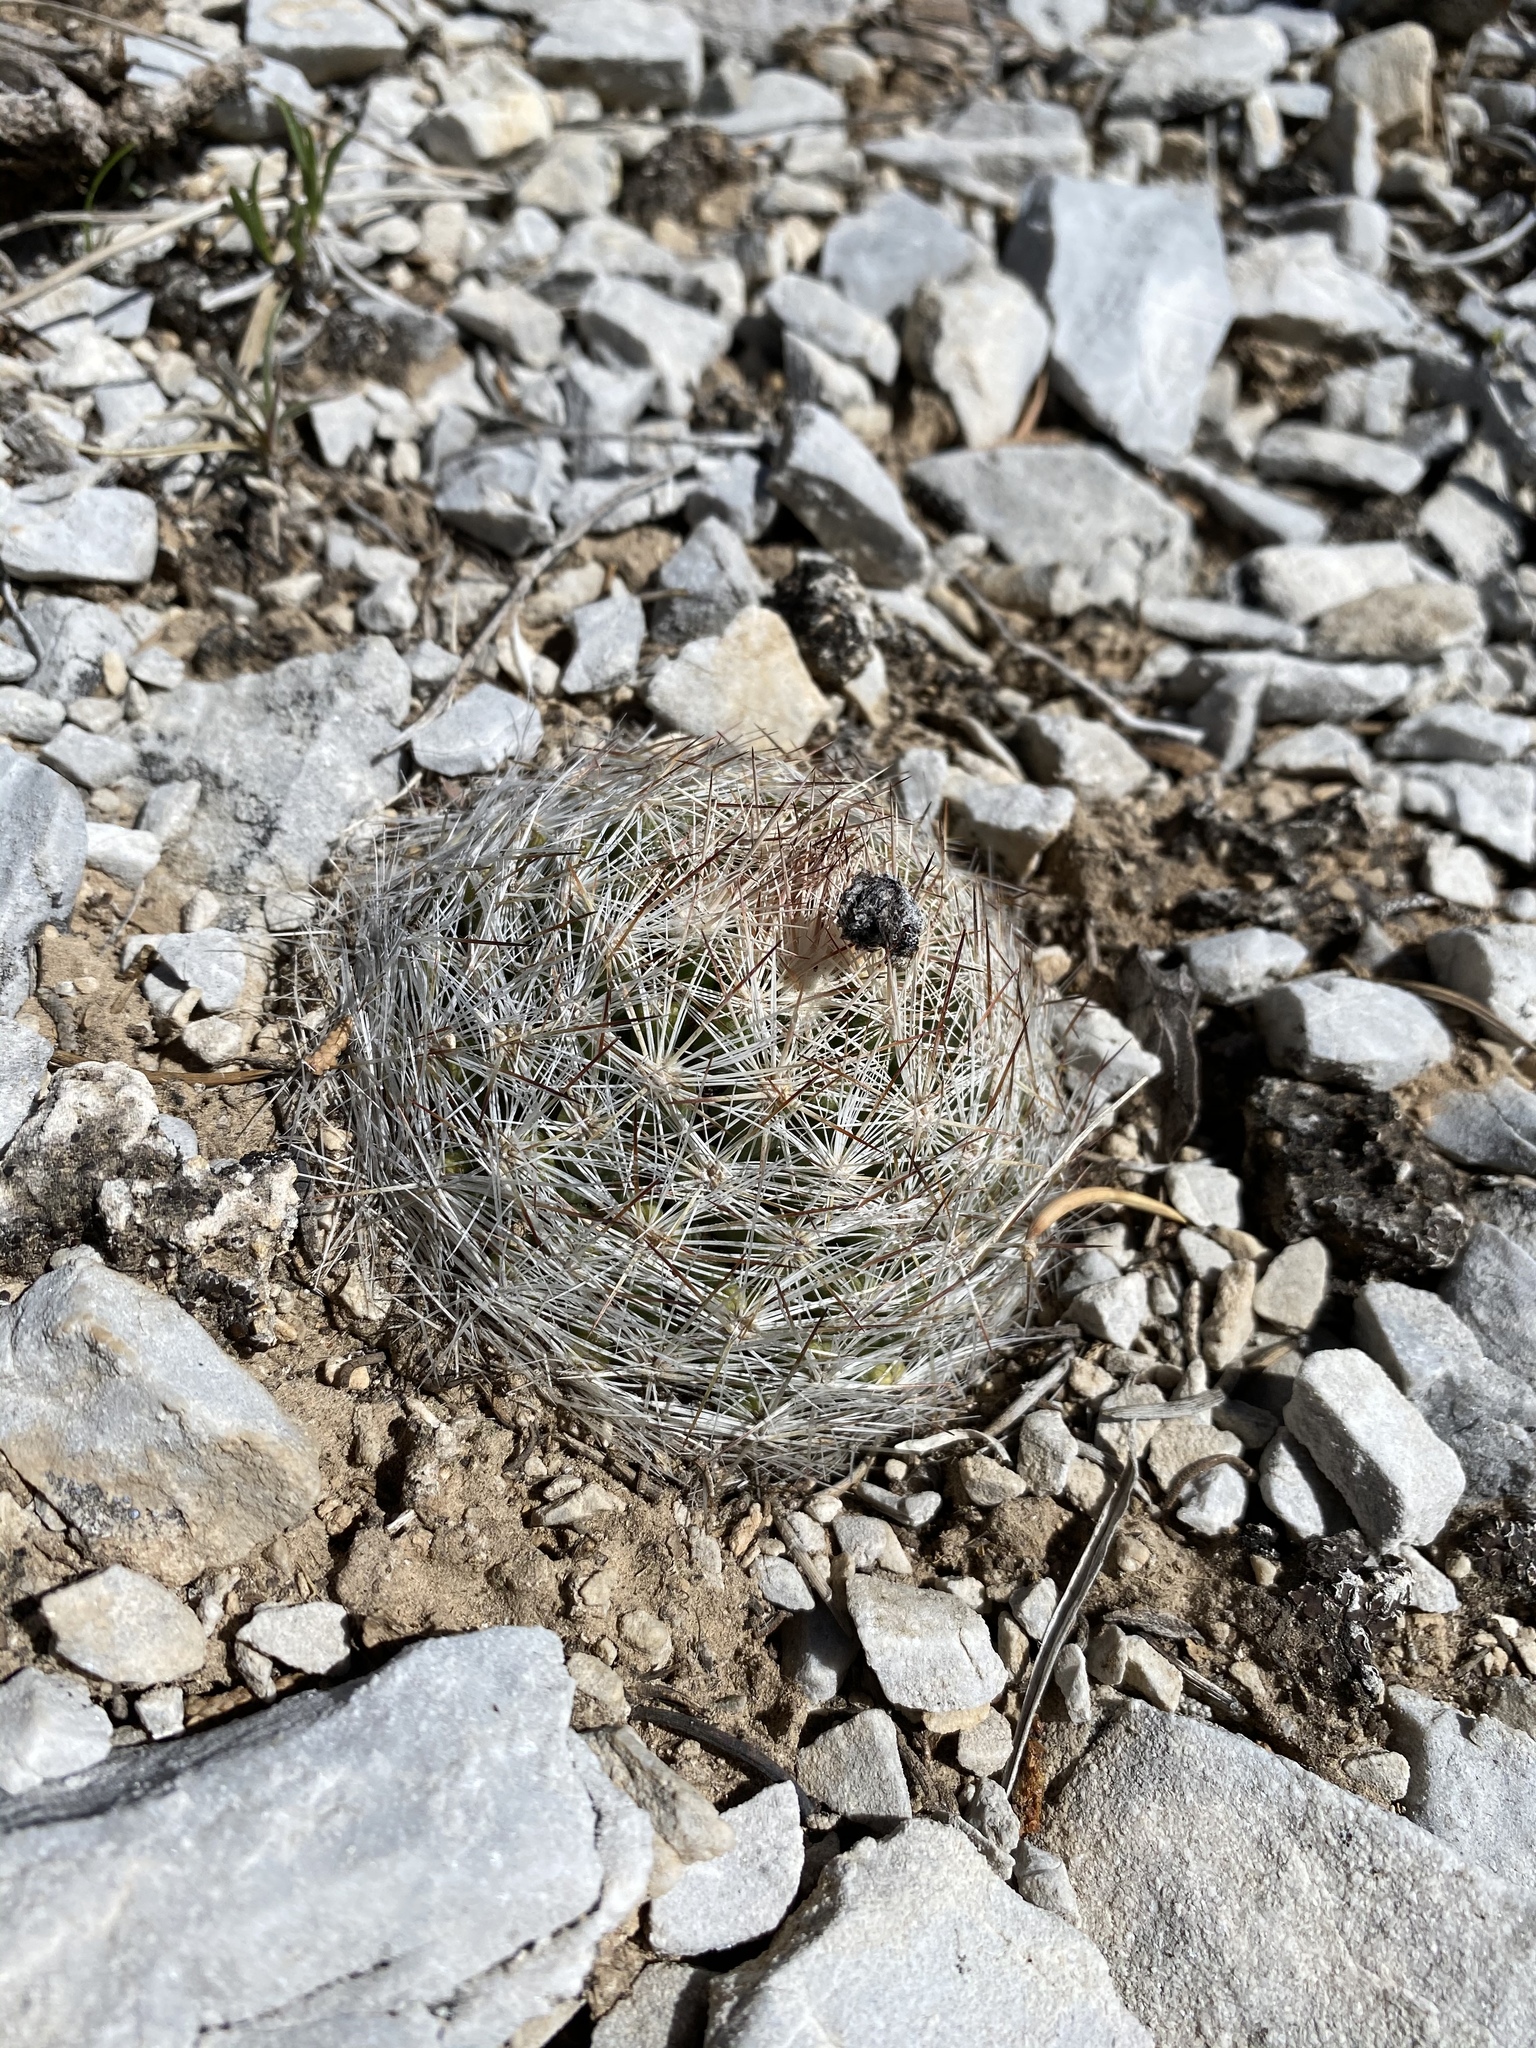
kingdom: Plantae
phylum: Tracheophyta
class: Magnoliopsida
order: Caryophyllales
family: Cactaceae
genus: Pelecyphora
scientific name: Pelecyphora vivipara
